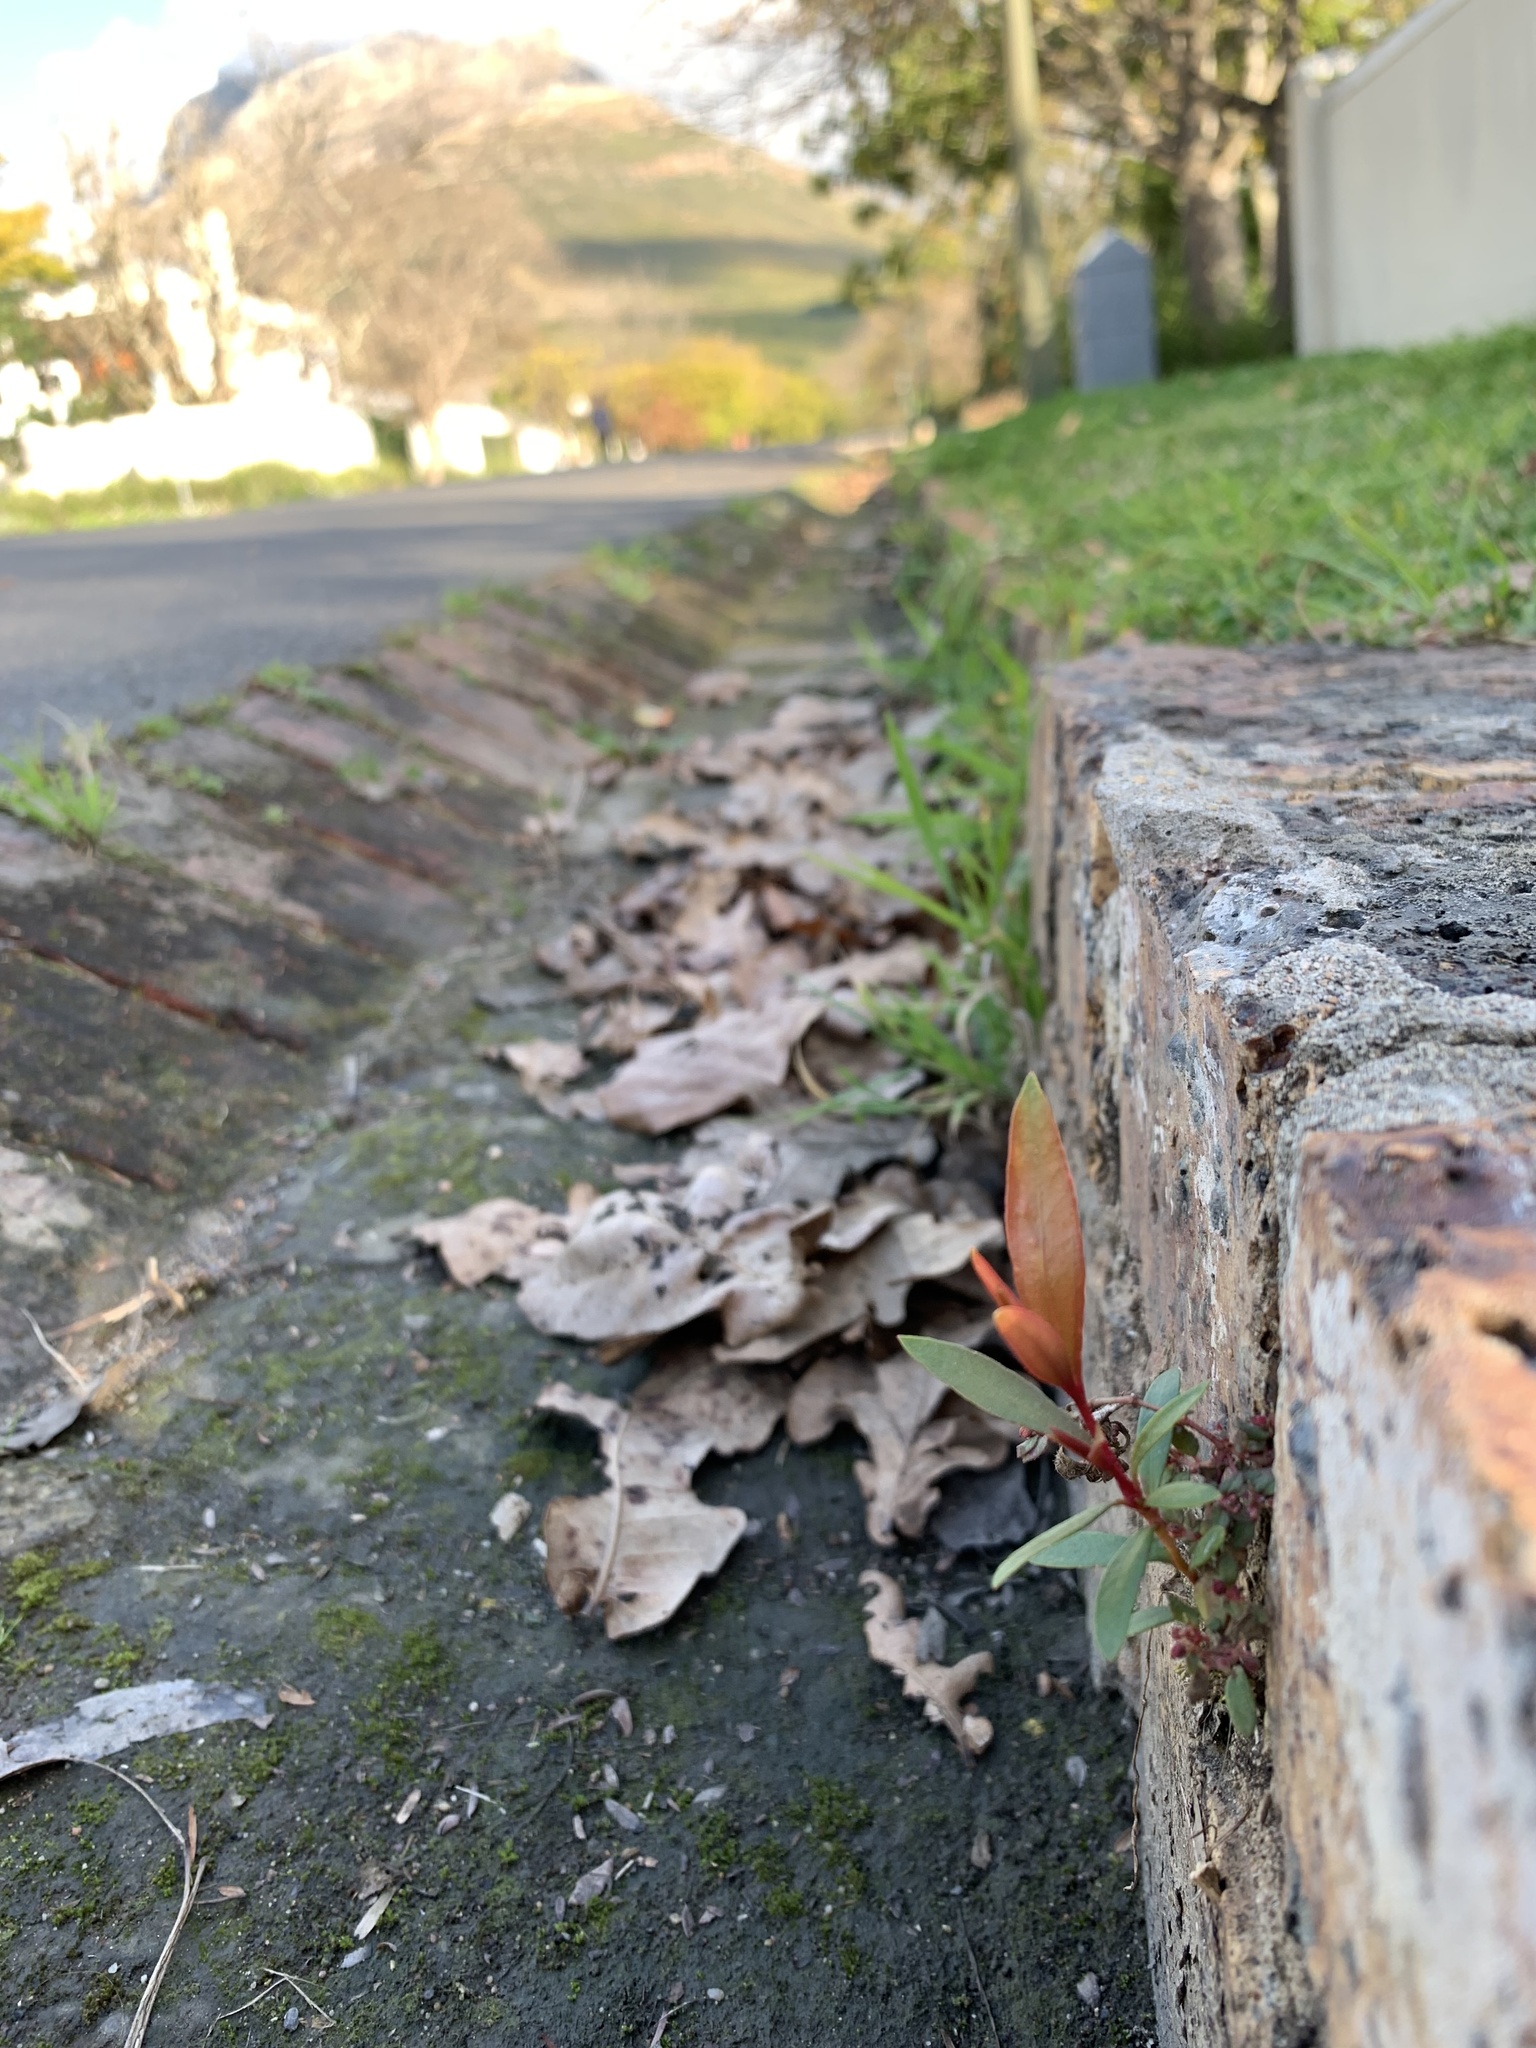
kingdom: Plantae
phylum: Tracheophyta
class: Magnoliopsida
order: Myrtales
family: Myrtaceae
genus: Callistemon
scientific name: Callistemon viminalis
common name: Drooping bottlebrush
